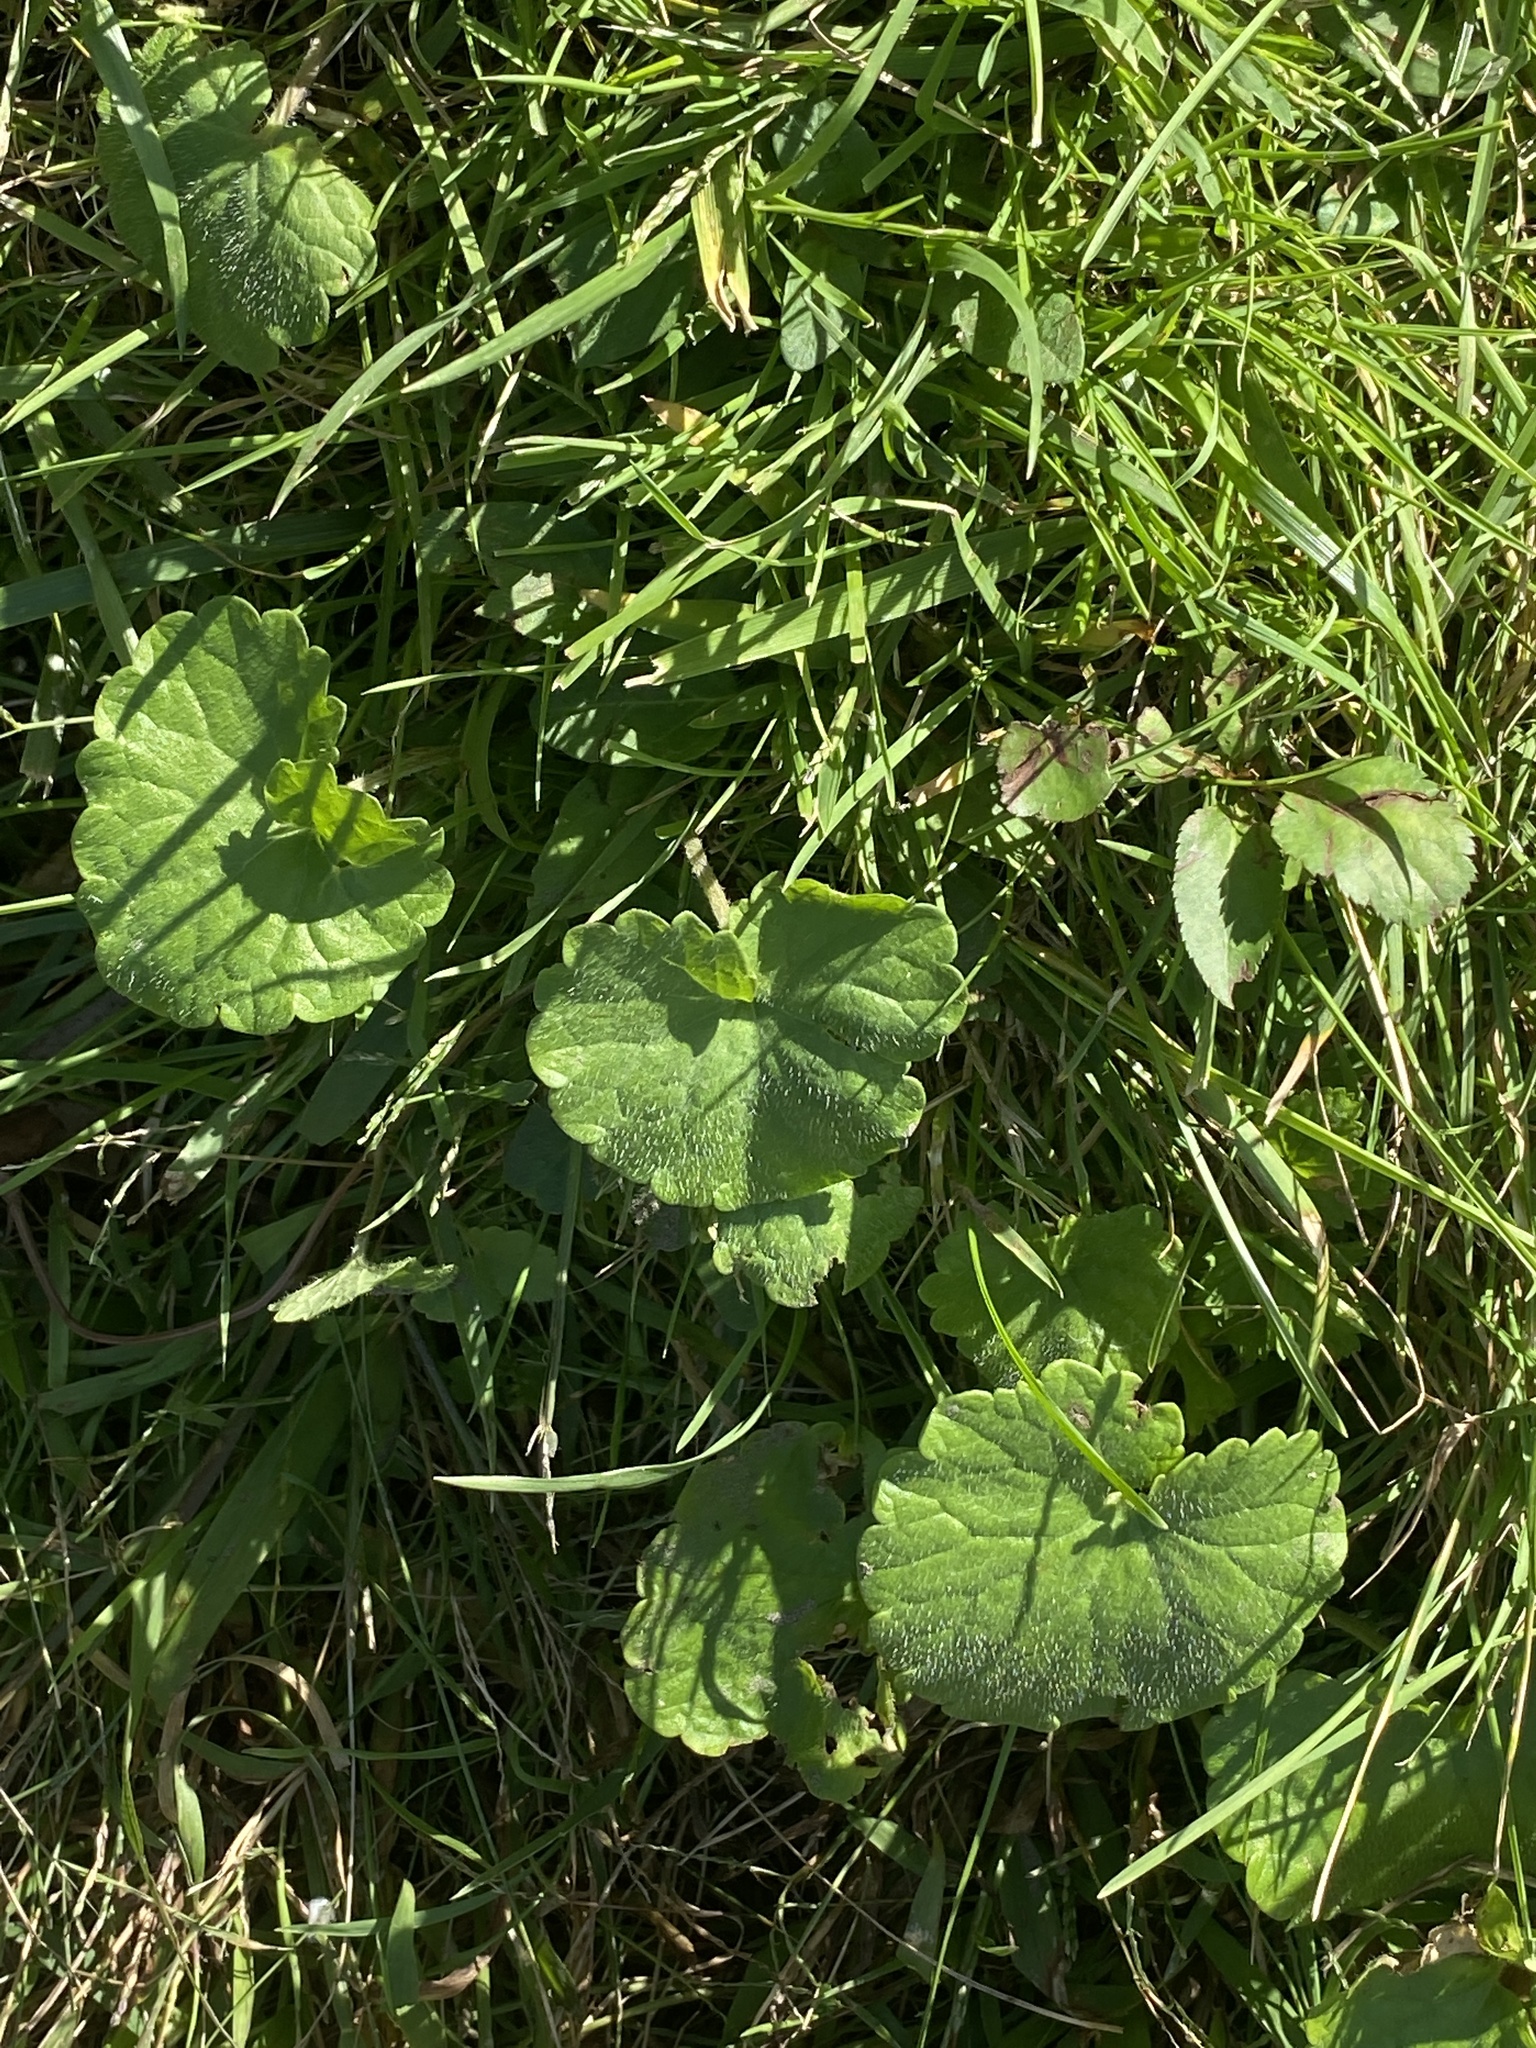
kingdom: Plantae
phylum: Tracheophyta
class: Magnoliopsida
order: Lamiales
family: Lamiaceae
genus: Glechoma
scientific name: Glechoma hederacea
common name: Ground ivy
